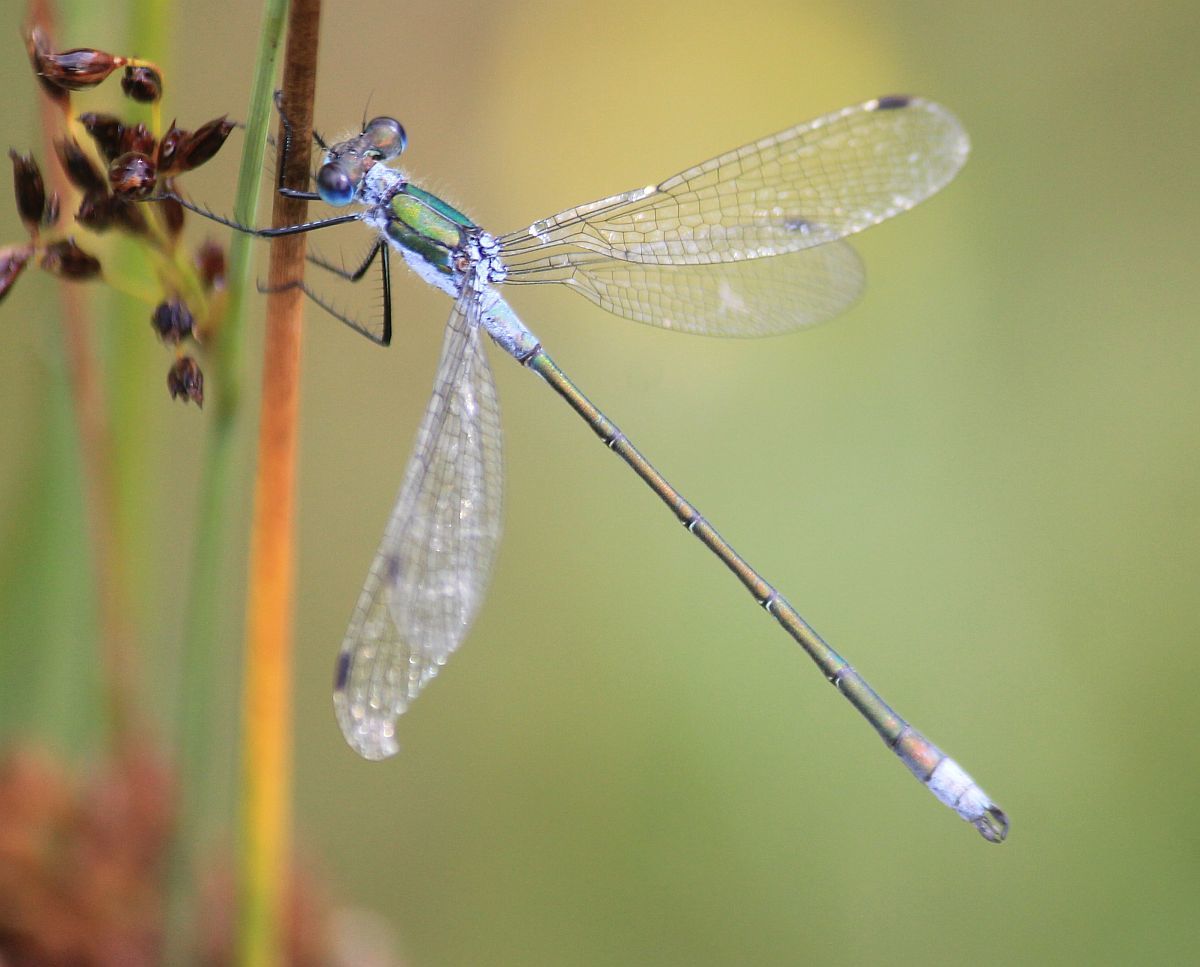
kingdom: Animalia
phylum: Arthropoda
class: Insecta
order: Odonata
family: Lestidae
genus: Lestes
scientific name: Lestes sponsa
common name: Common spreadwing
